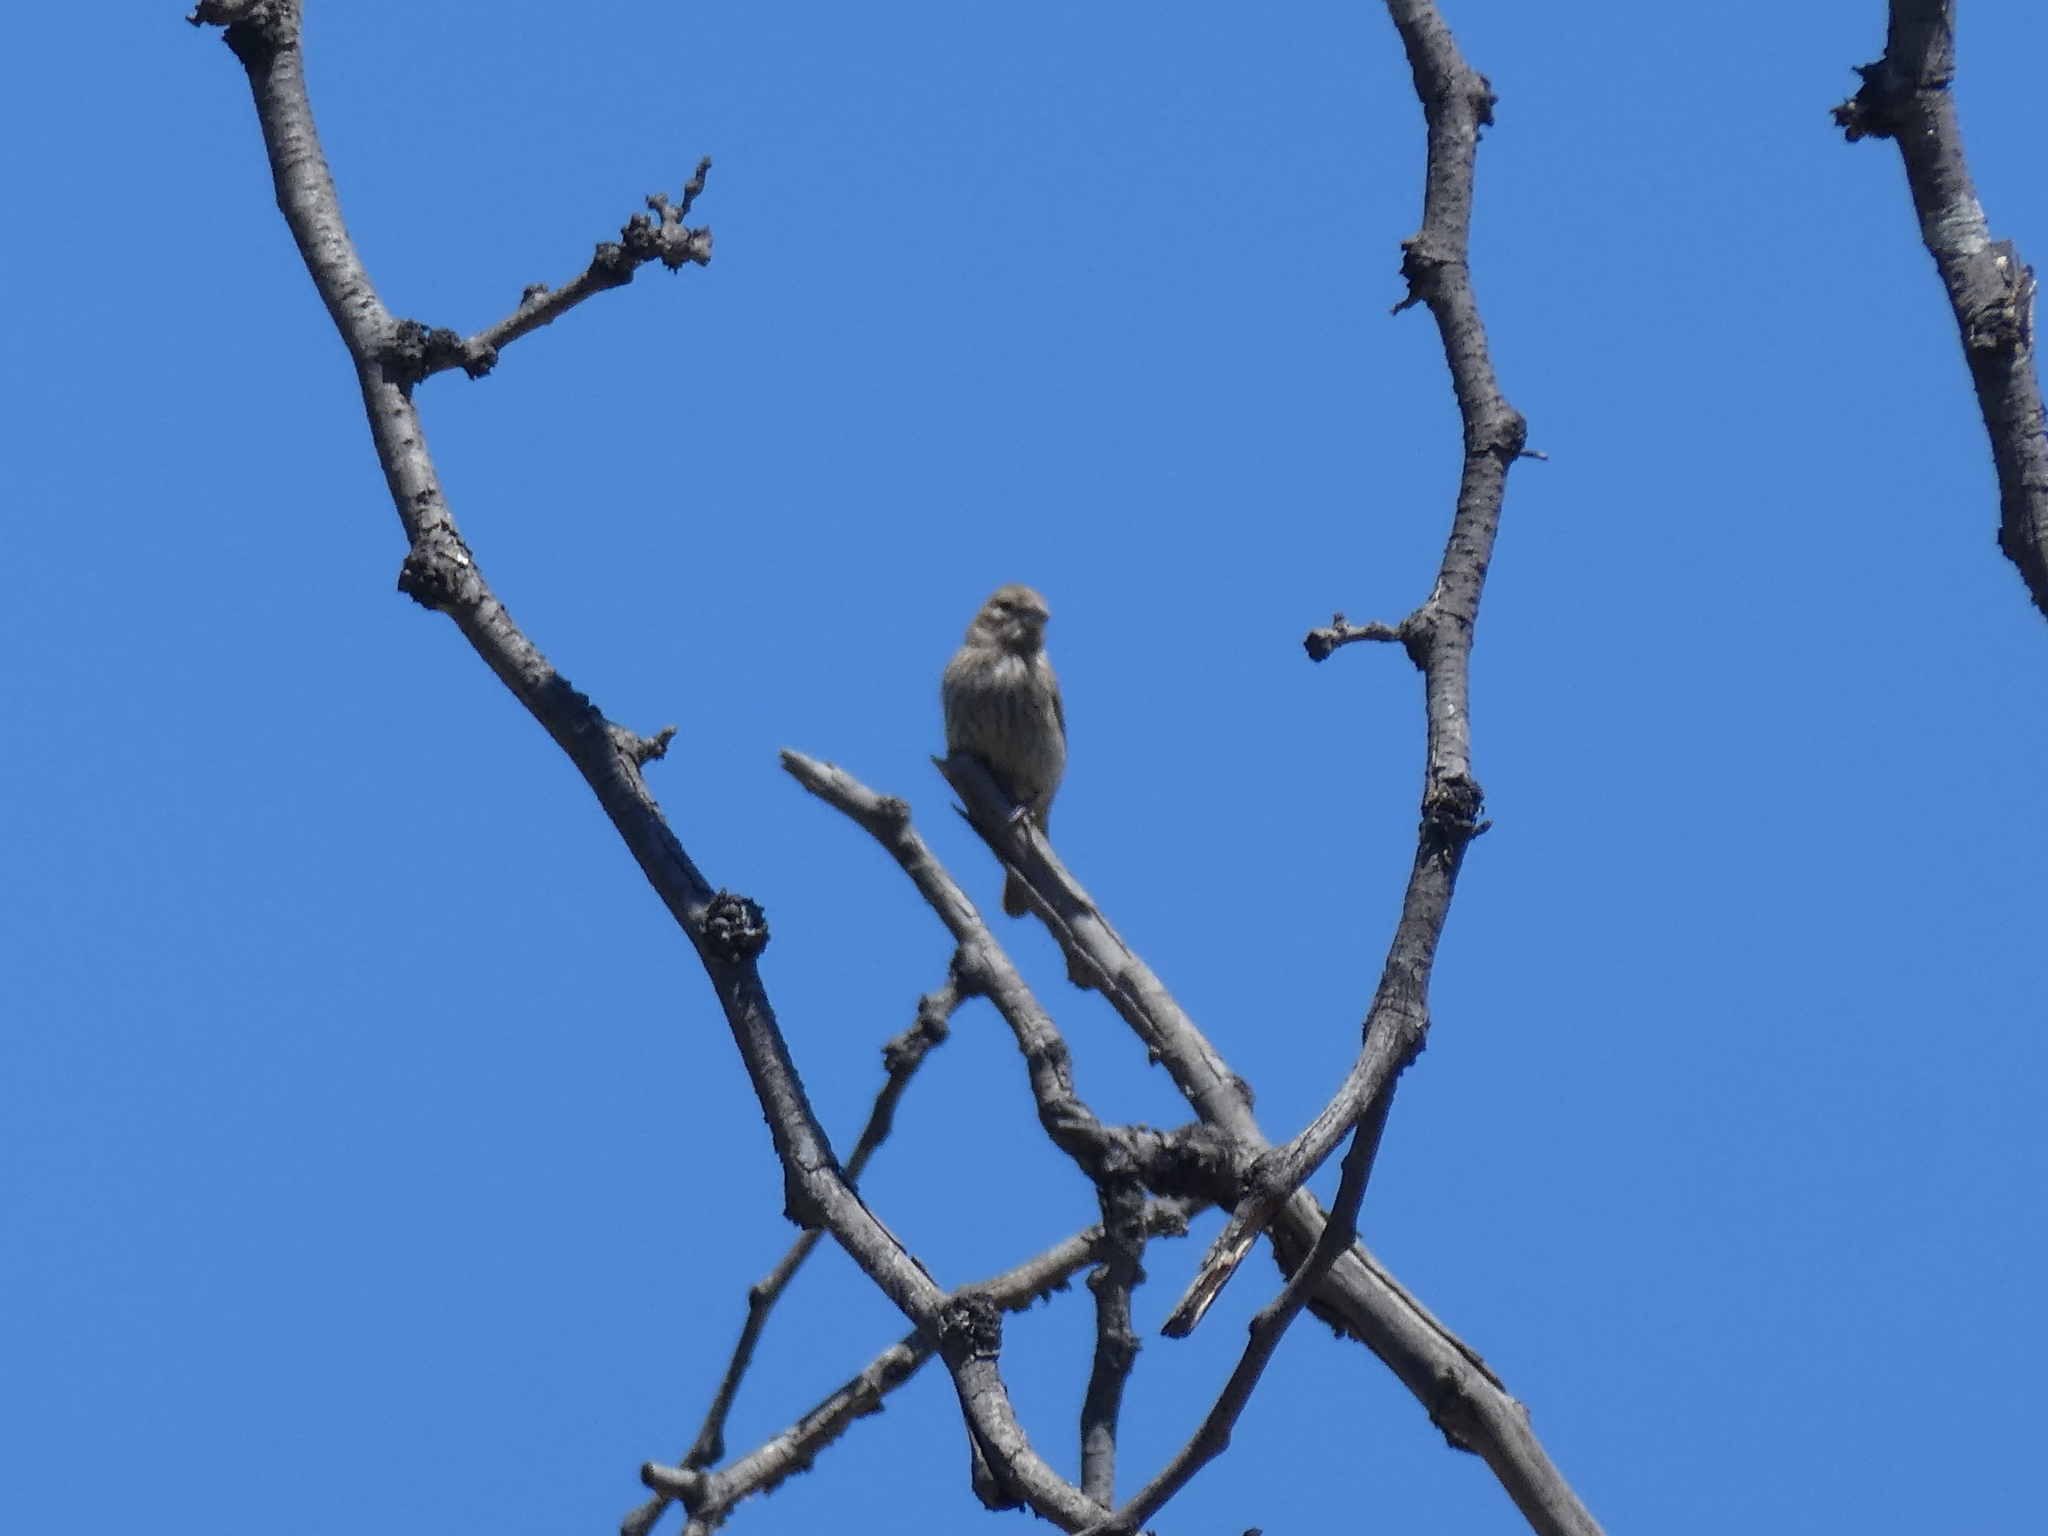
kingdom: Animalia
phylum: Chordata
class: Aves
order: Passeriformes
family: Fringillidae
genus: Haemorhous
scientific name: Haemorhous mexicanus
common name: House finch
